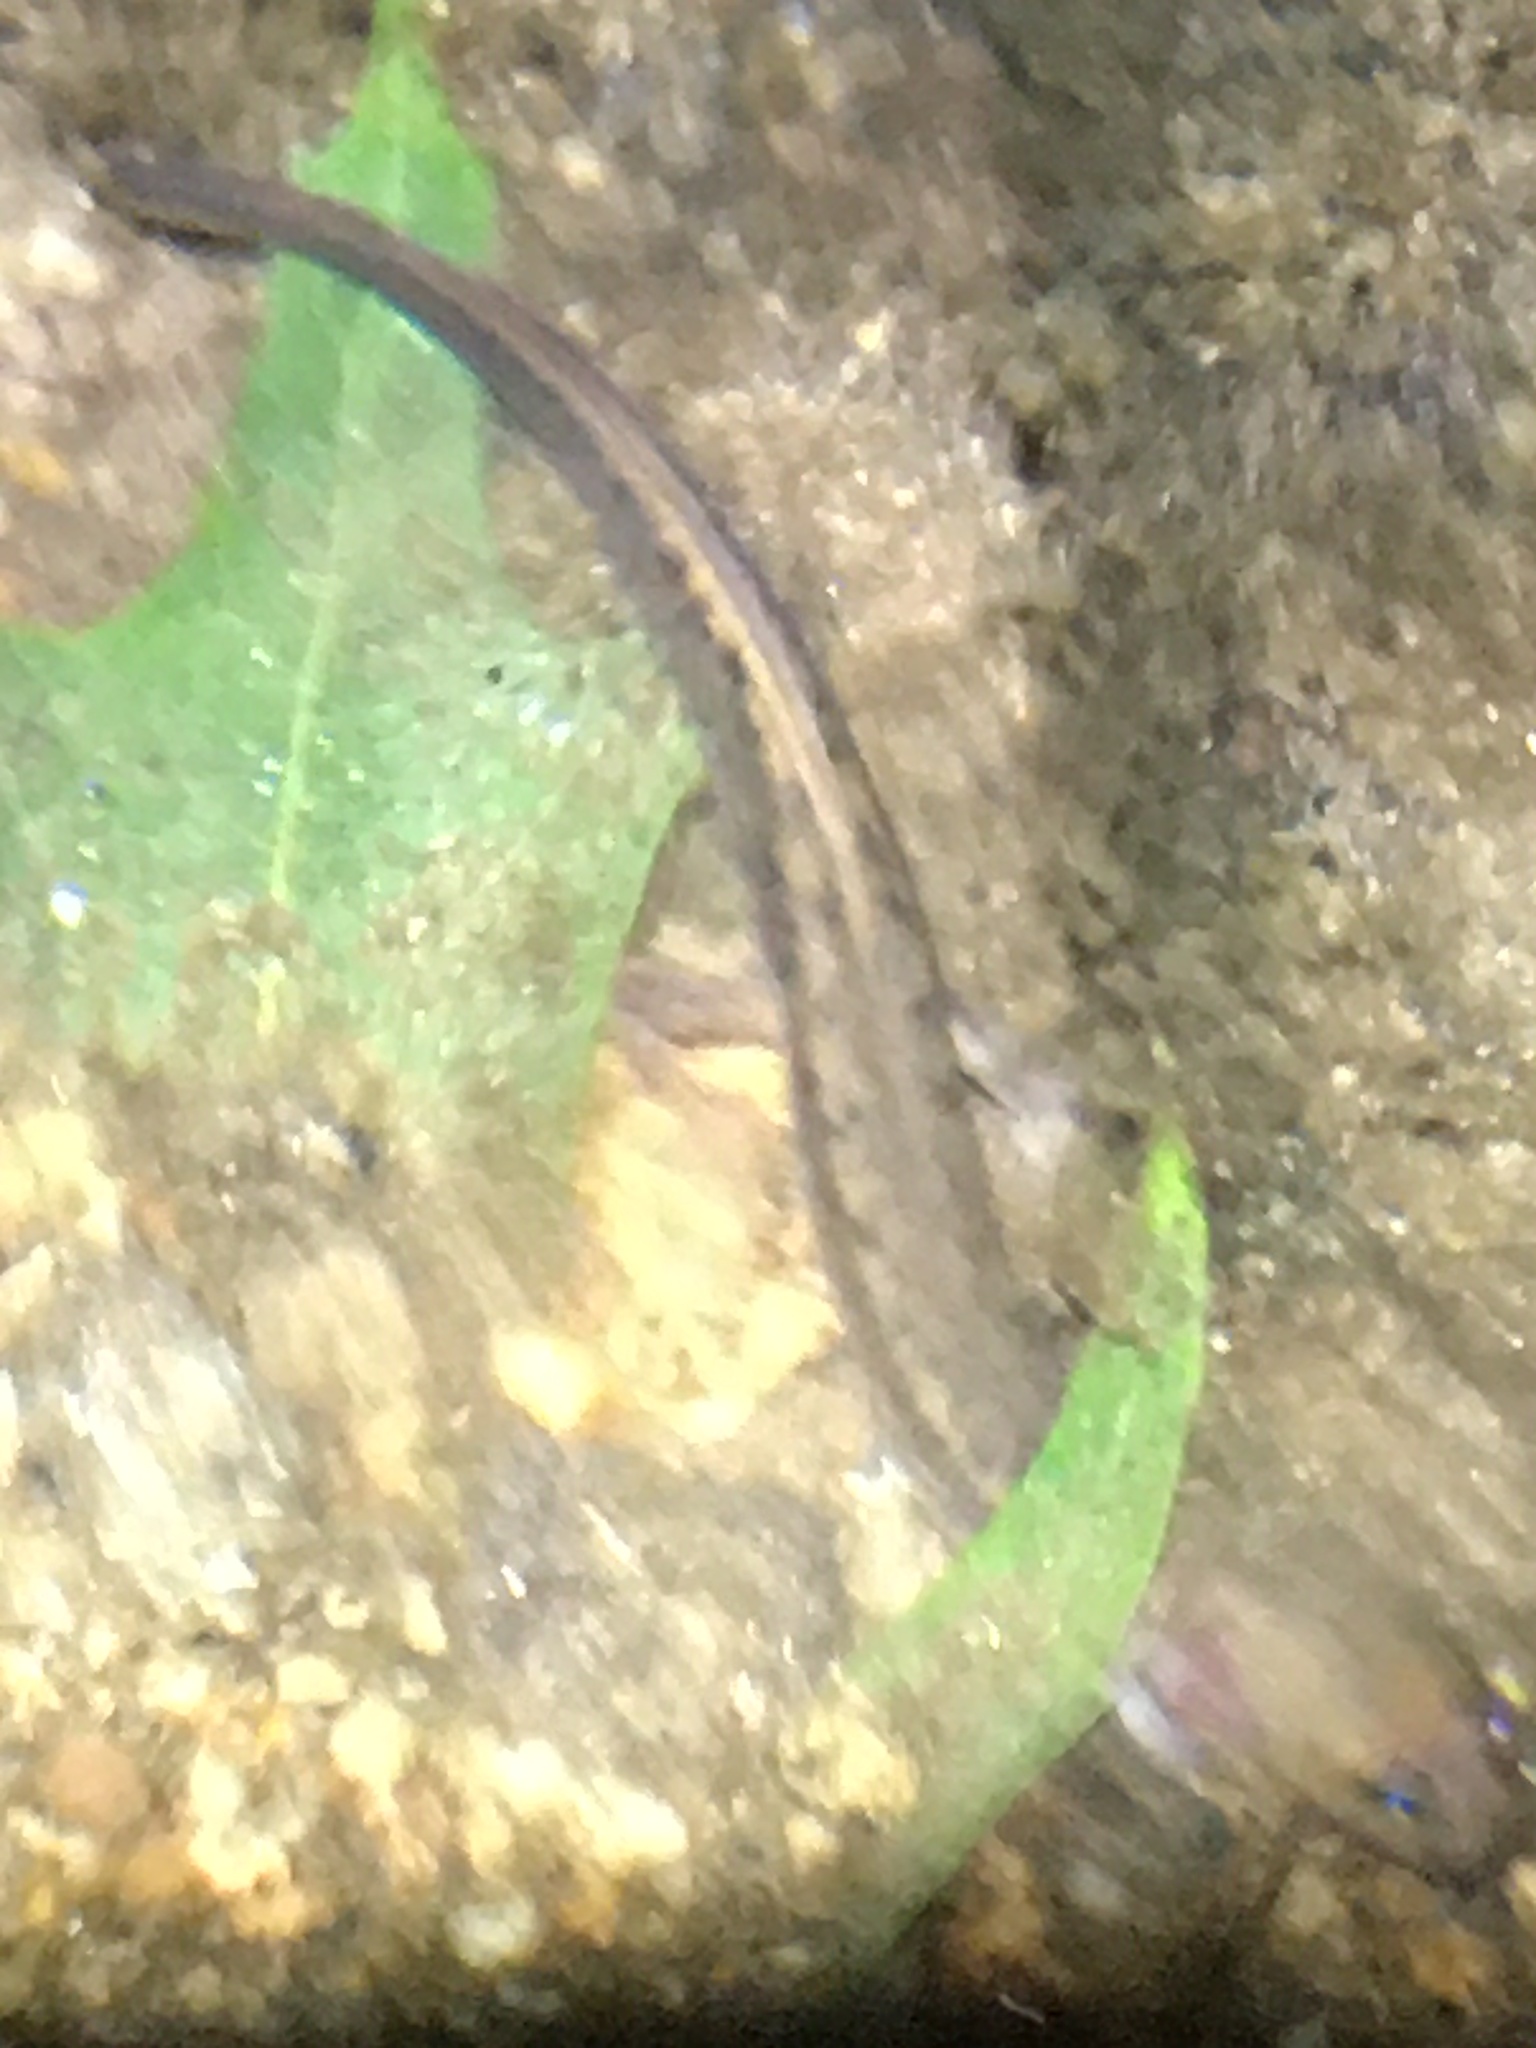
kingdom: Animalia
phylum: Chordata
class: Amphibia
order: Caudata
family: Plethodontidae
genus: Eurycea
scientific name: Eurycea bislineata
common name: Northern two-lined salamander
